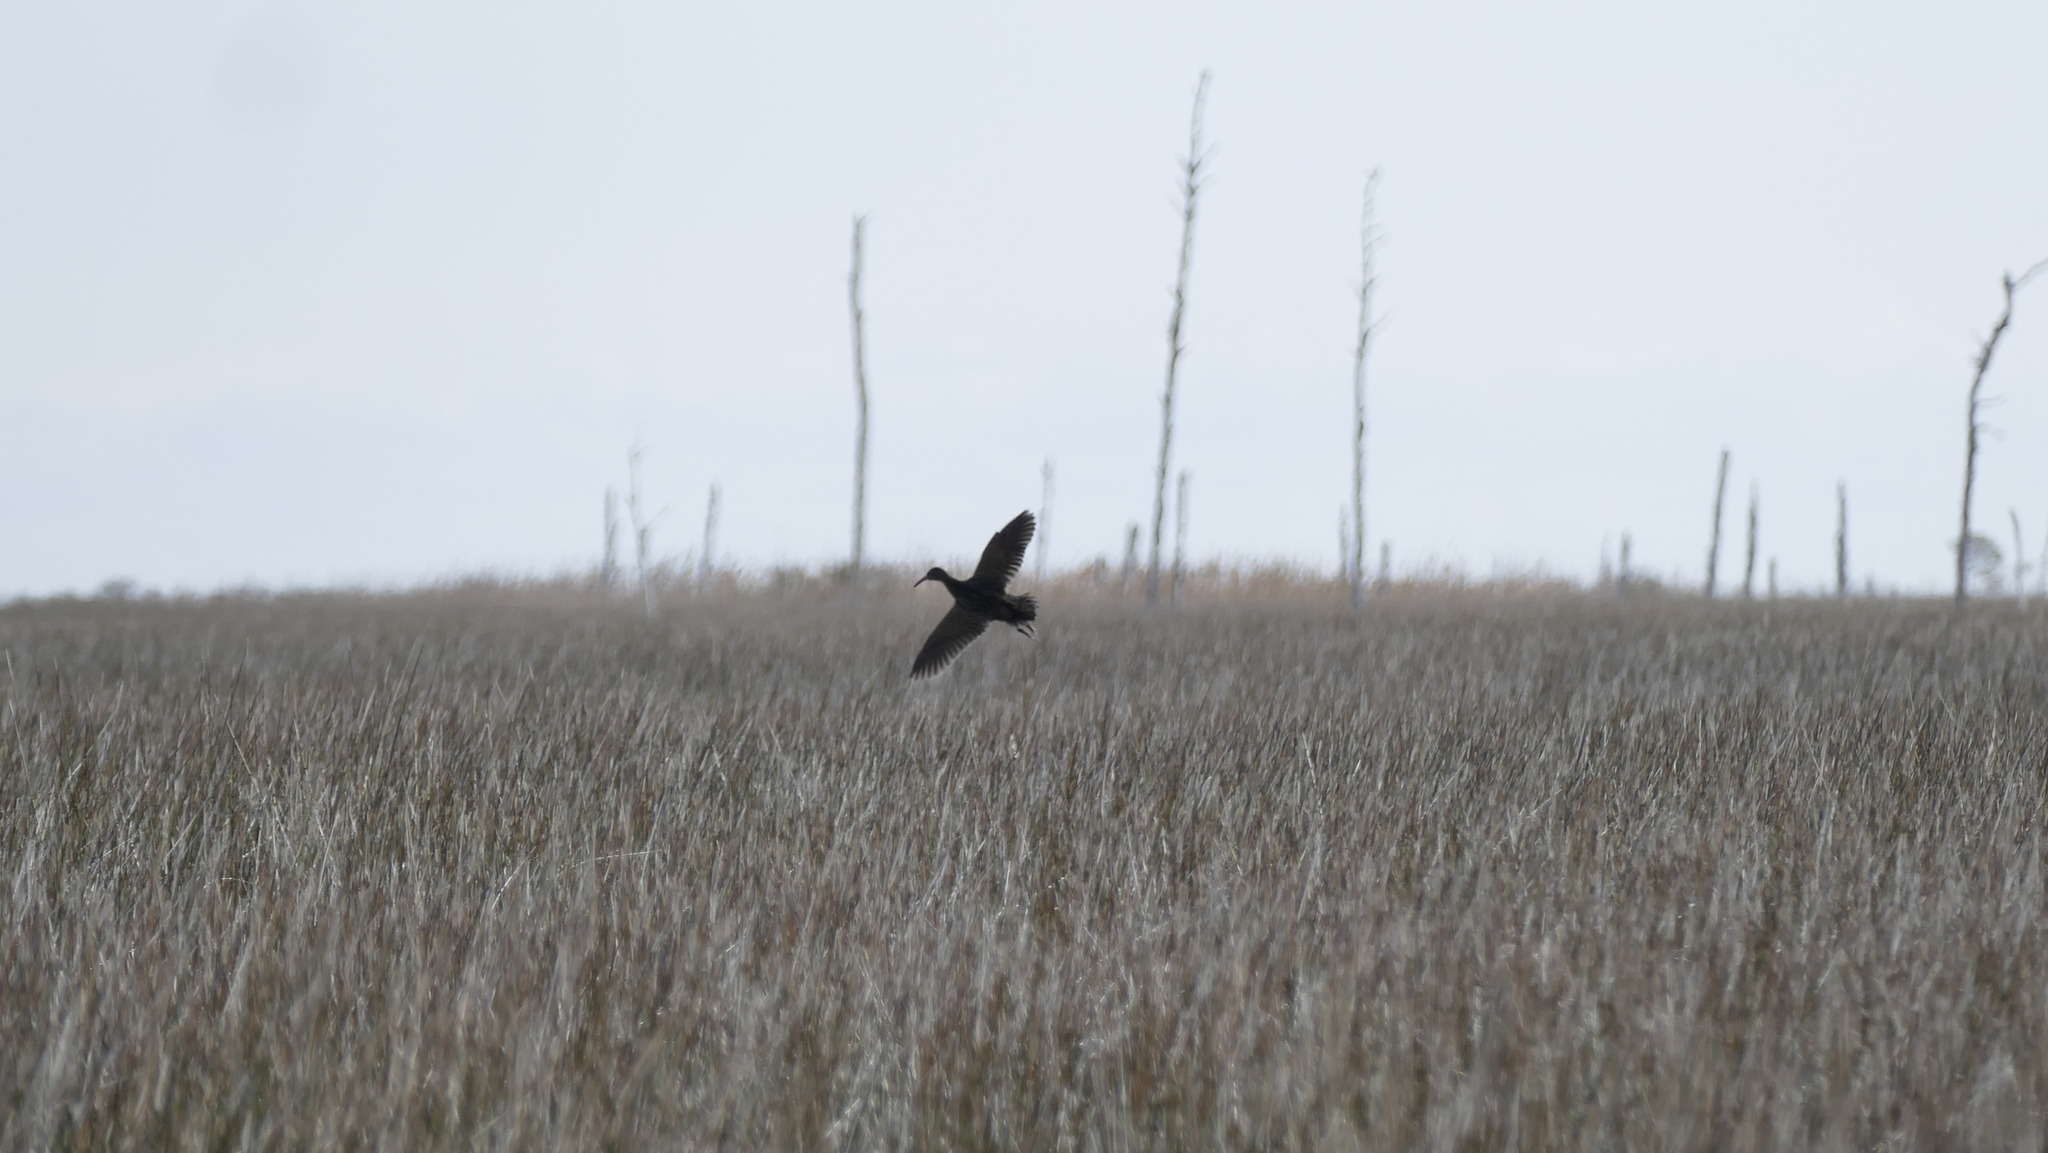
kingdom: Animalia
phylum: Chordata
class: Aves
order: Gruiformes
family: Rallidae
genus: Rallus
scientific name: Rallus
